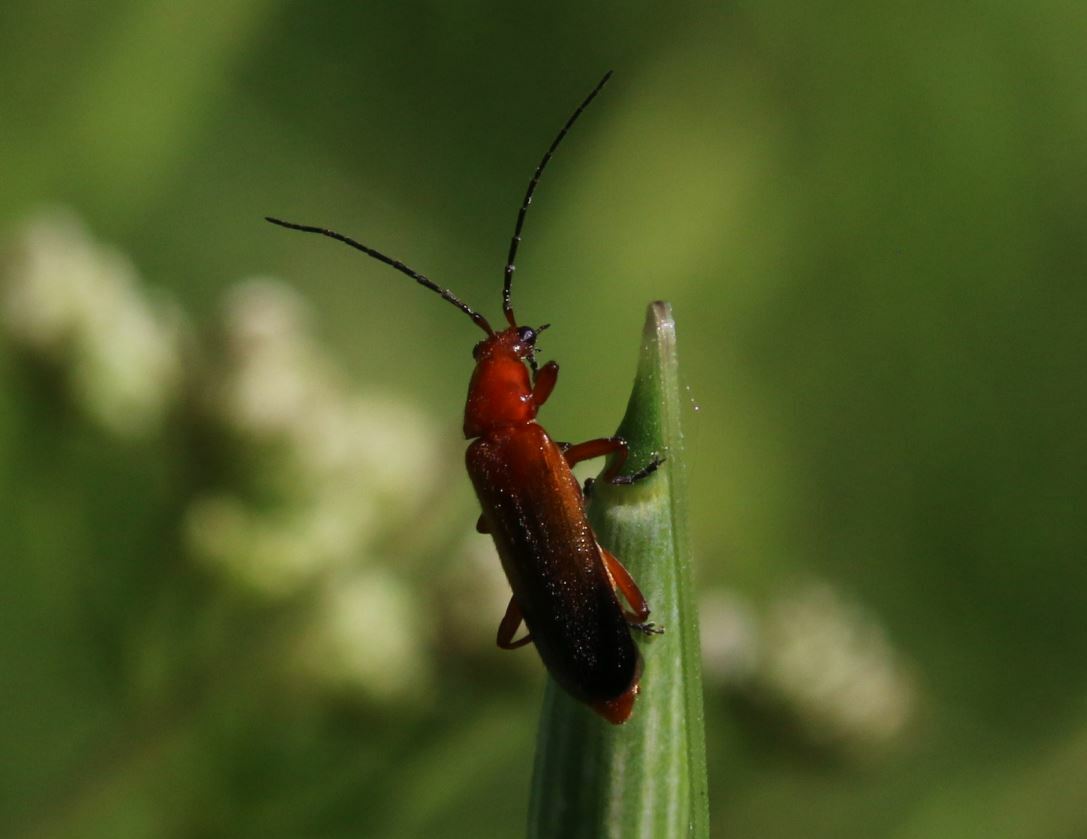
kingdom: Animalia
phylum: Arthropoda
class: Insecta
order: Coleoptera
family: Cantharidae
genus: Rhagonycha
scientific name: Rhagonycha fulva
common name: Common red soldier beetle
